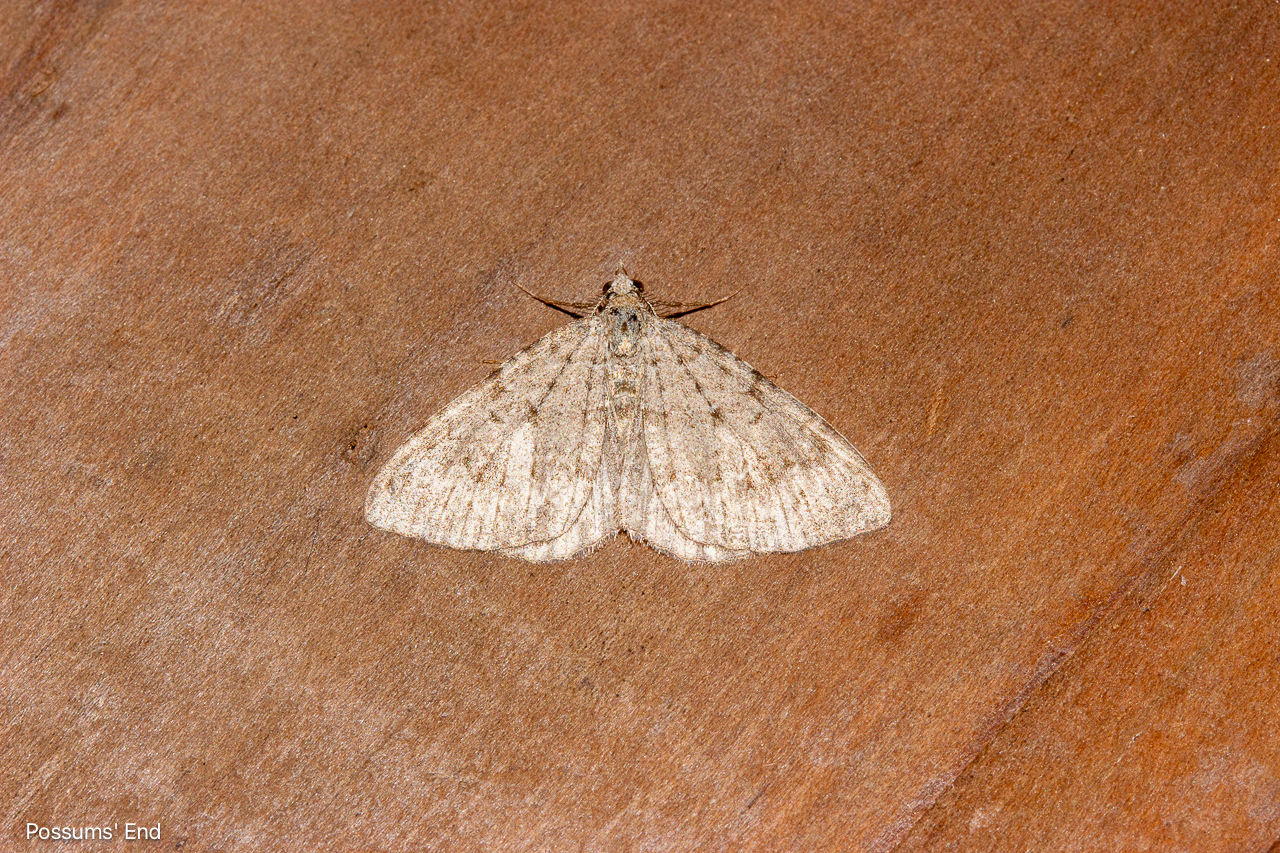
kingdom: Animalia
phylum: Arthropoda
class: Insecta
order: Lepidoptera
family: Geometridae
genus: Helastia
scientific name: Helastia corcularia
